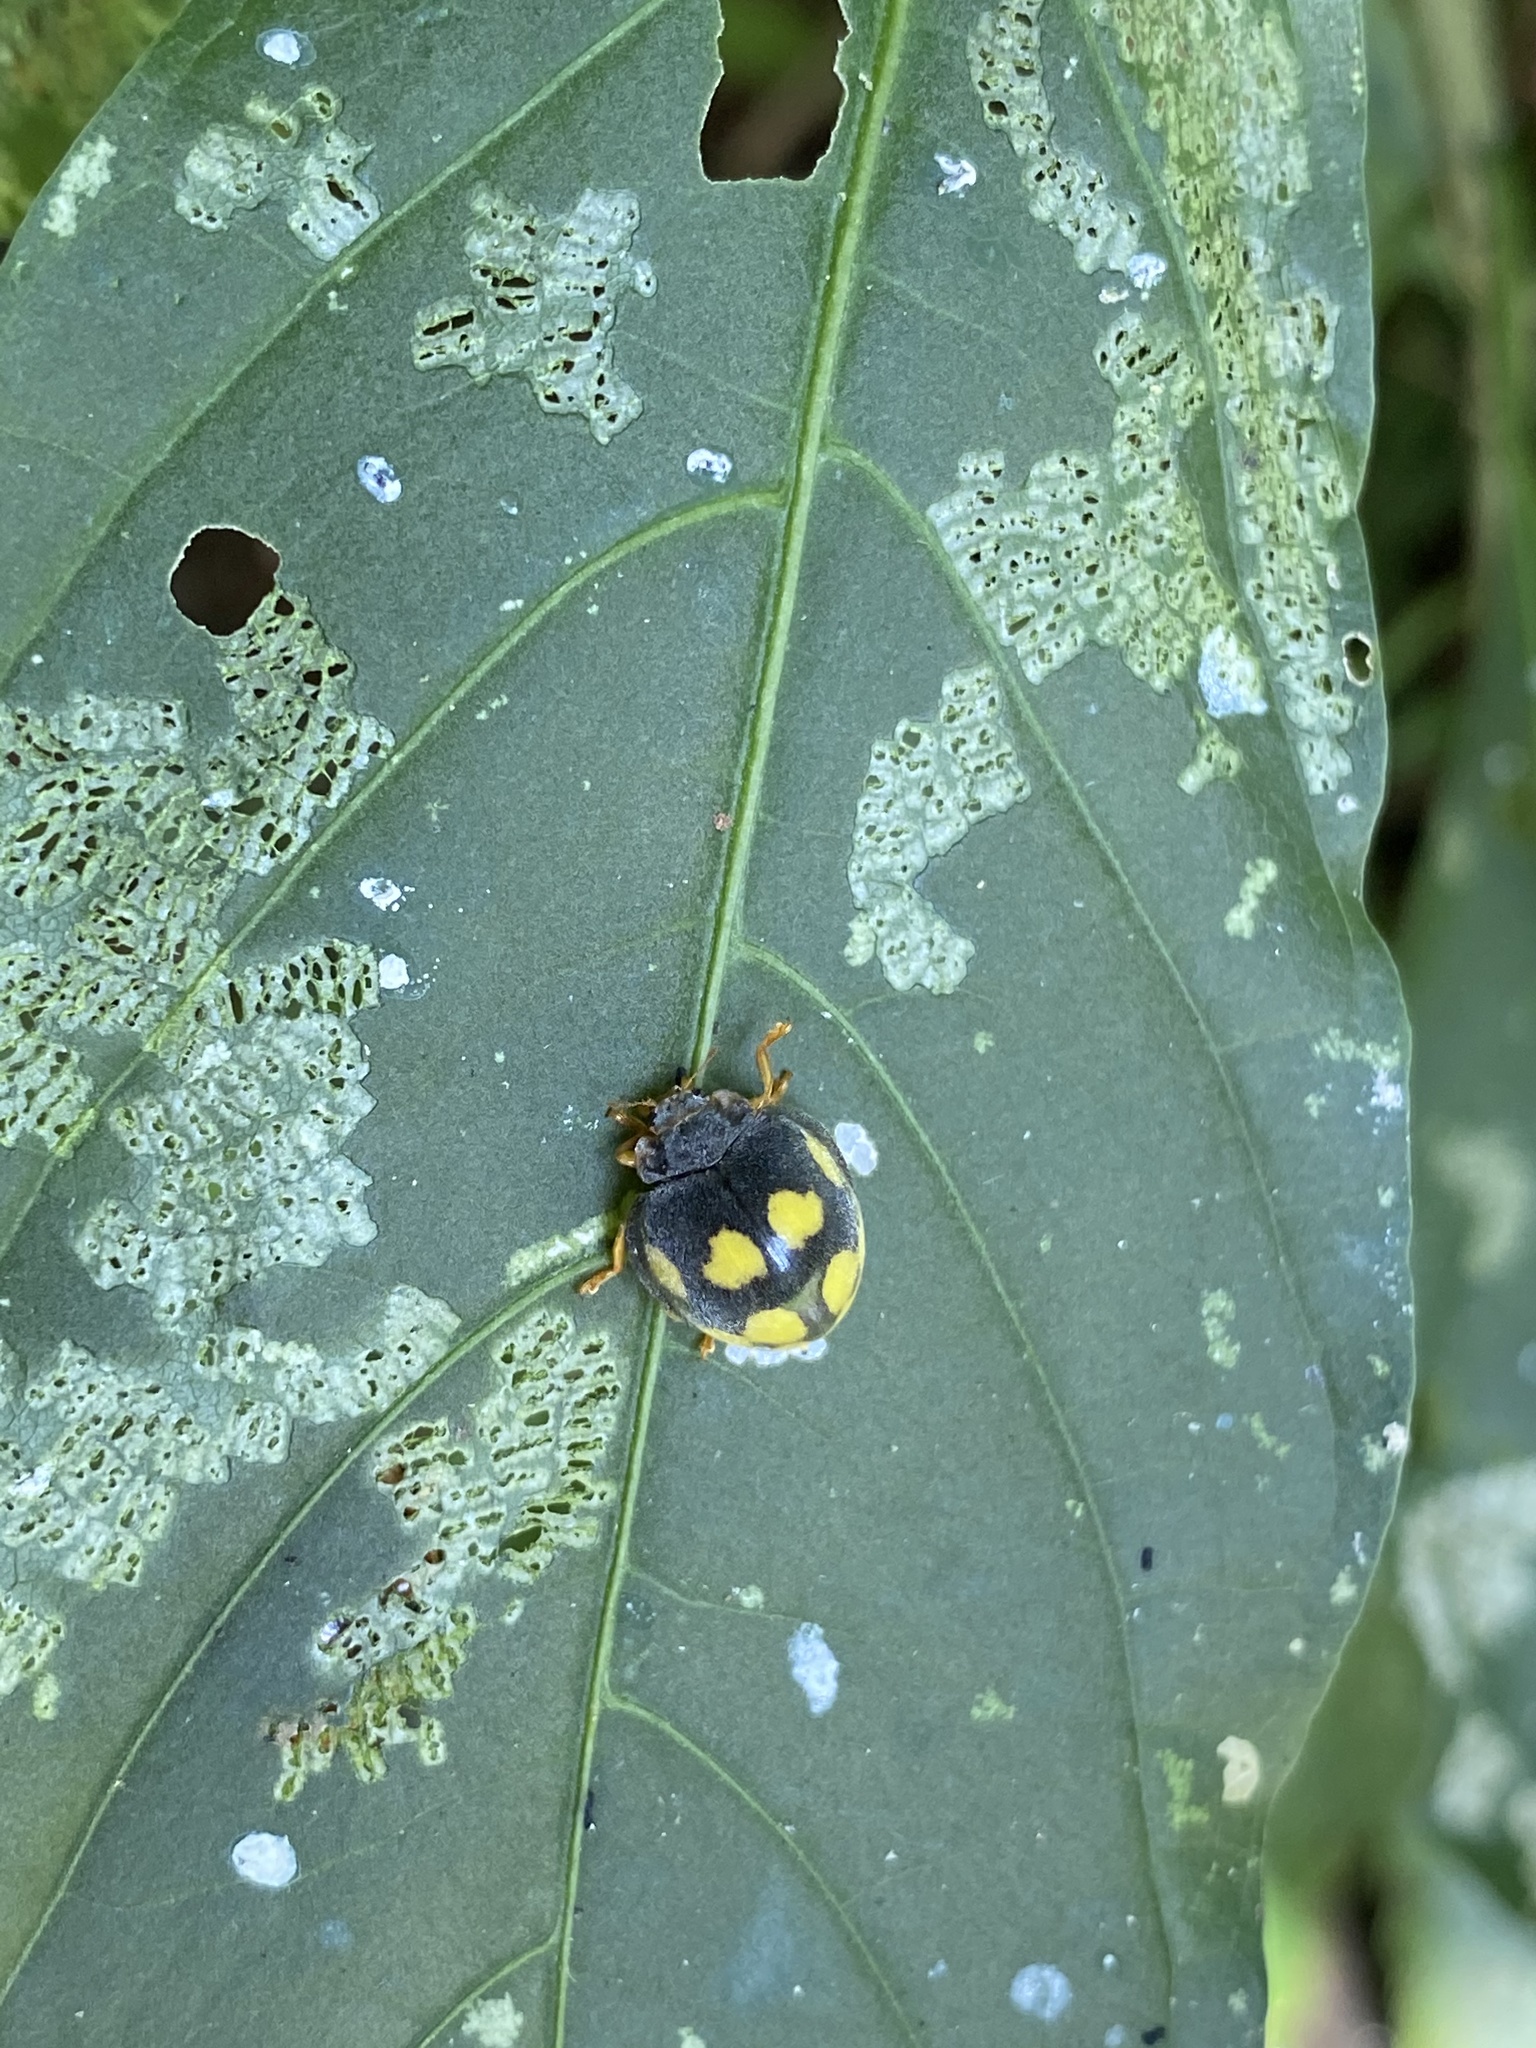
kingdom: Animalia
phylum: Arthropoda
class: Insecta
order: Coleoptera
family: Coccinellidae
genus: Epilachna
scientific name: Epilachna
